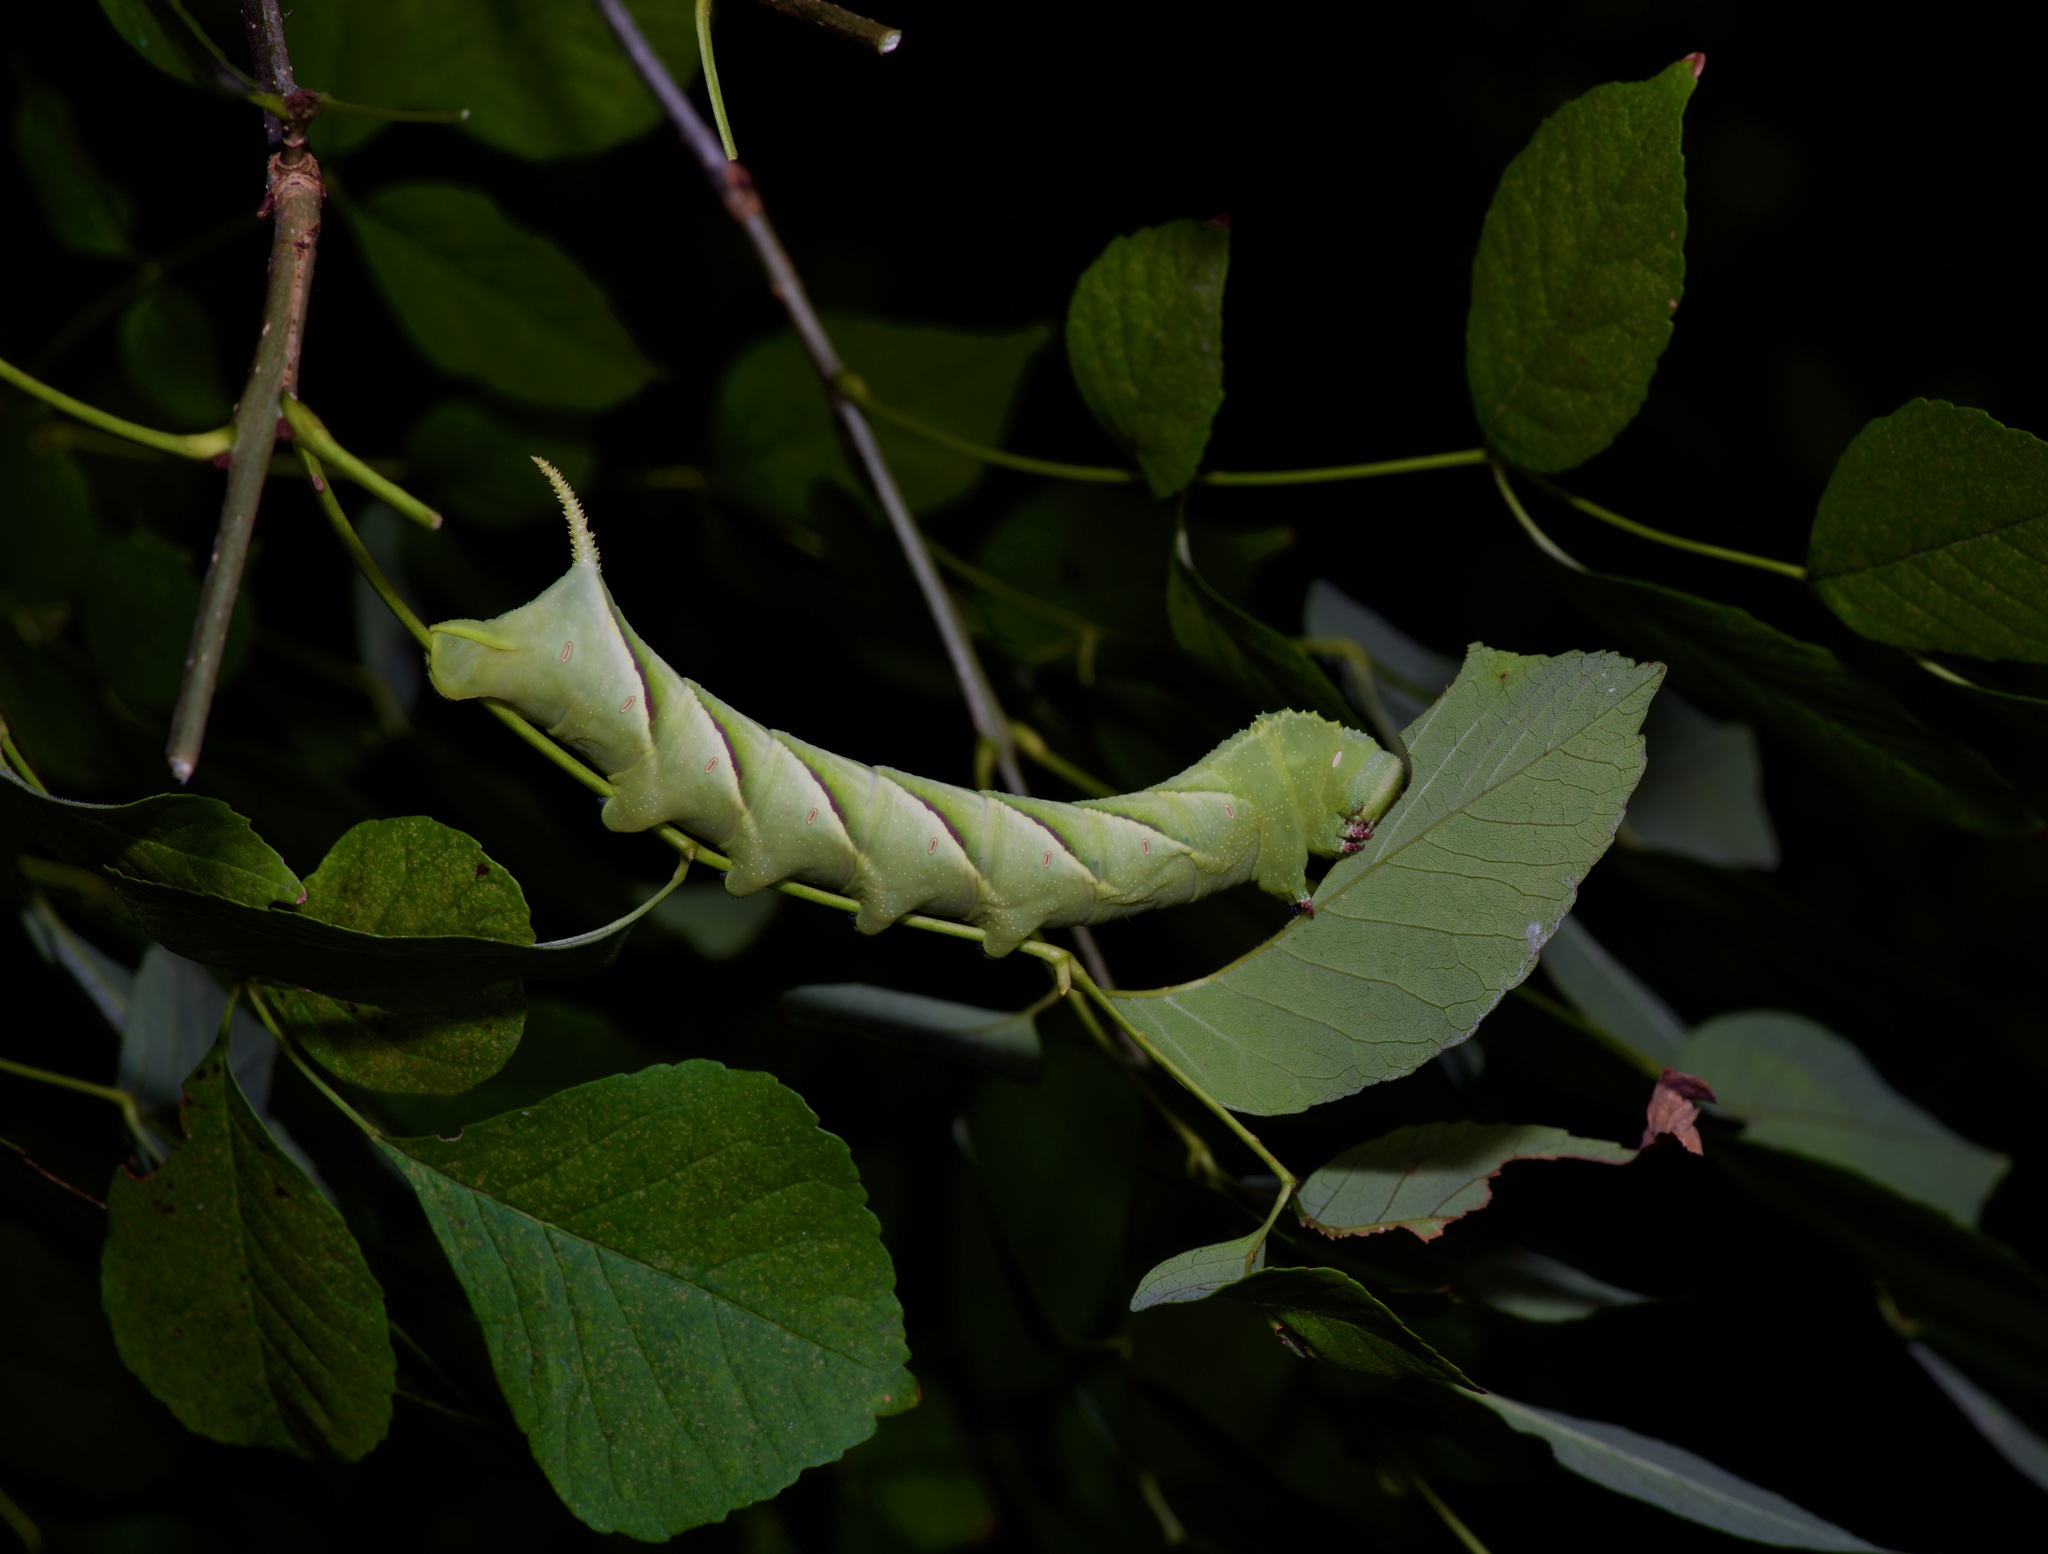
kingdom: Animalia
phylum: Arthropoda
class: Insecta
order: Lepidoptera
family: Sphingidae
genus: Manduca
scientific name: Manduca rustica
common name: Rustic sphinx
